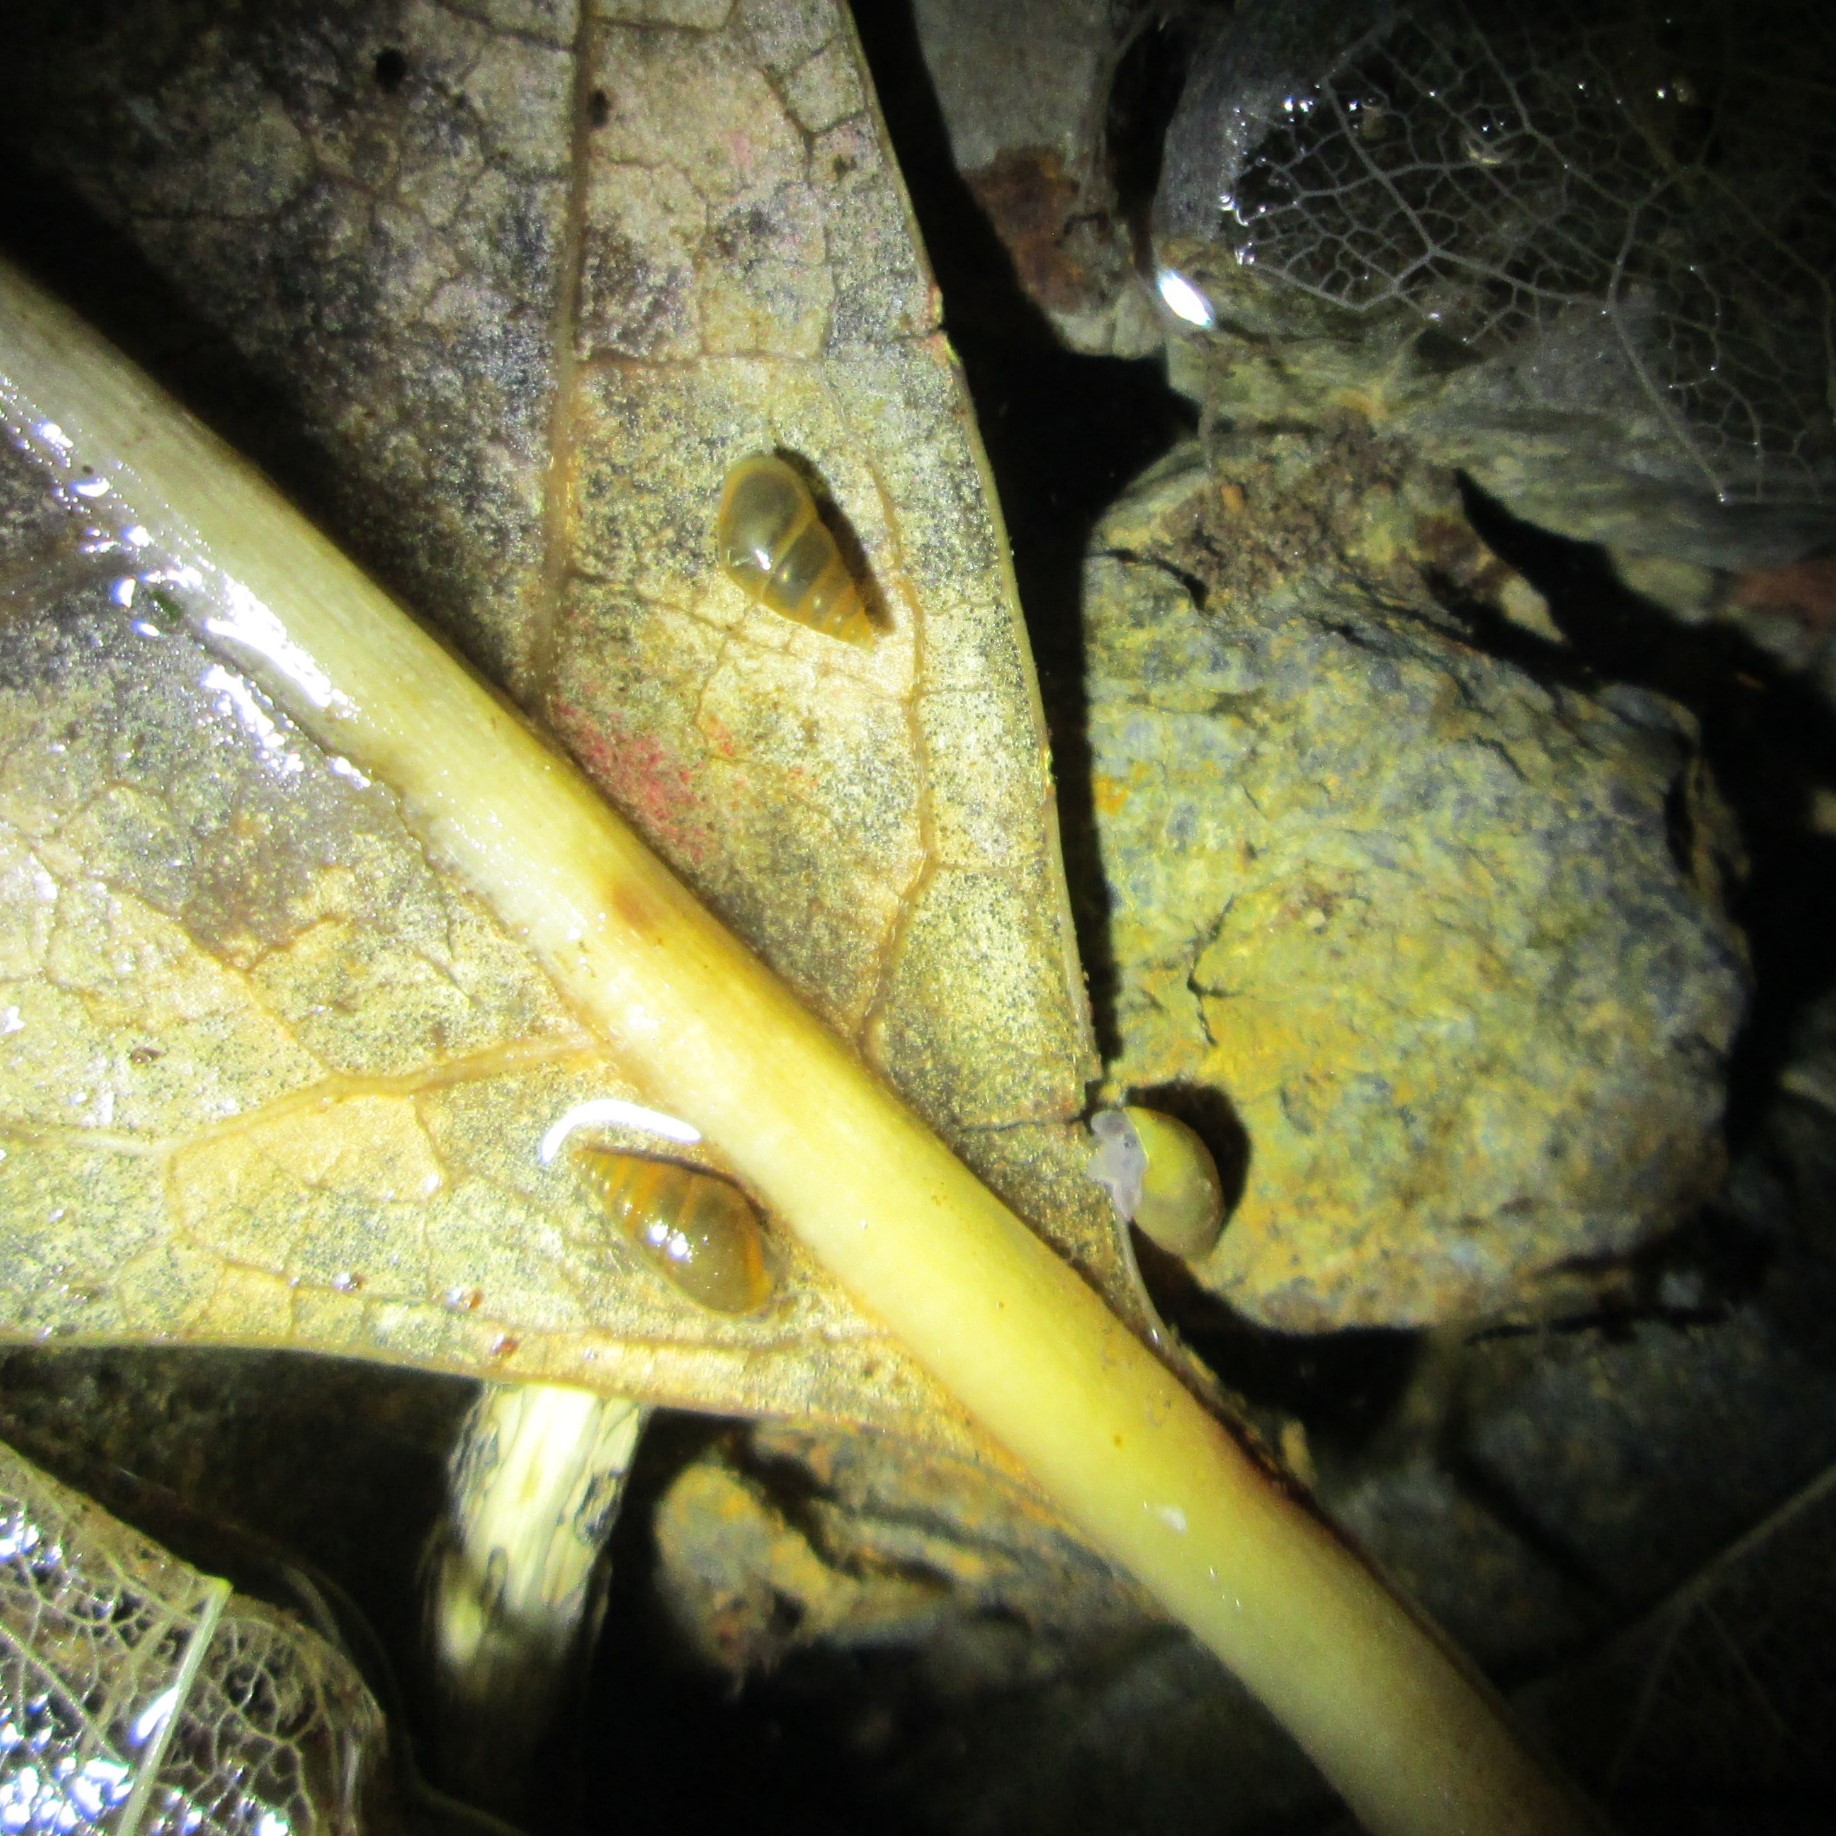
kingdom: Animalia
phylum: Mollusca
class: Gastropoda
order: Littorinimorpha
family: Tateidae
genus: Potamopyrgus
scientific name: Potamopyrgus antipodarum
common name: Jenkins' spire snail
